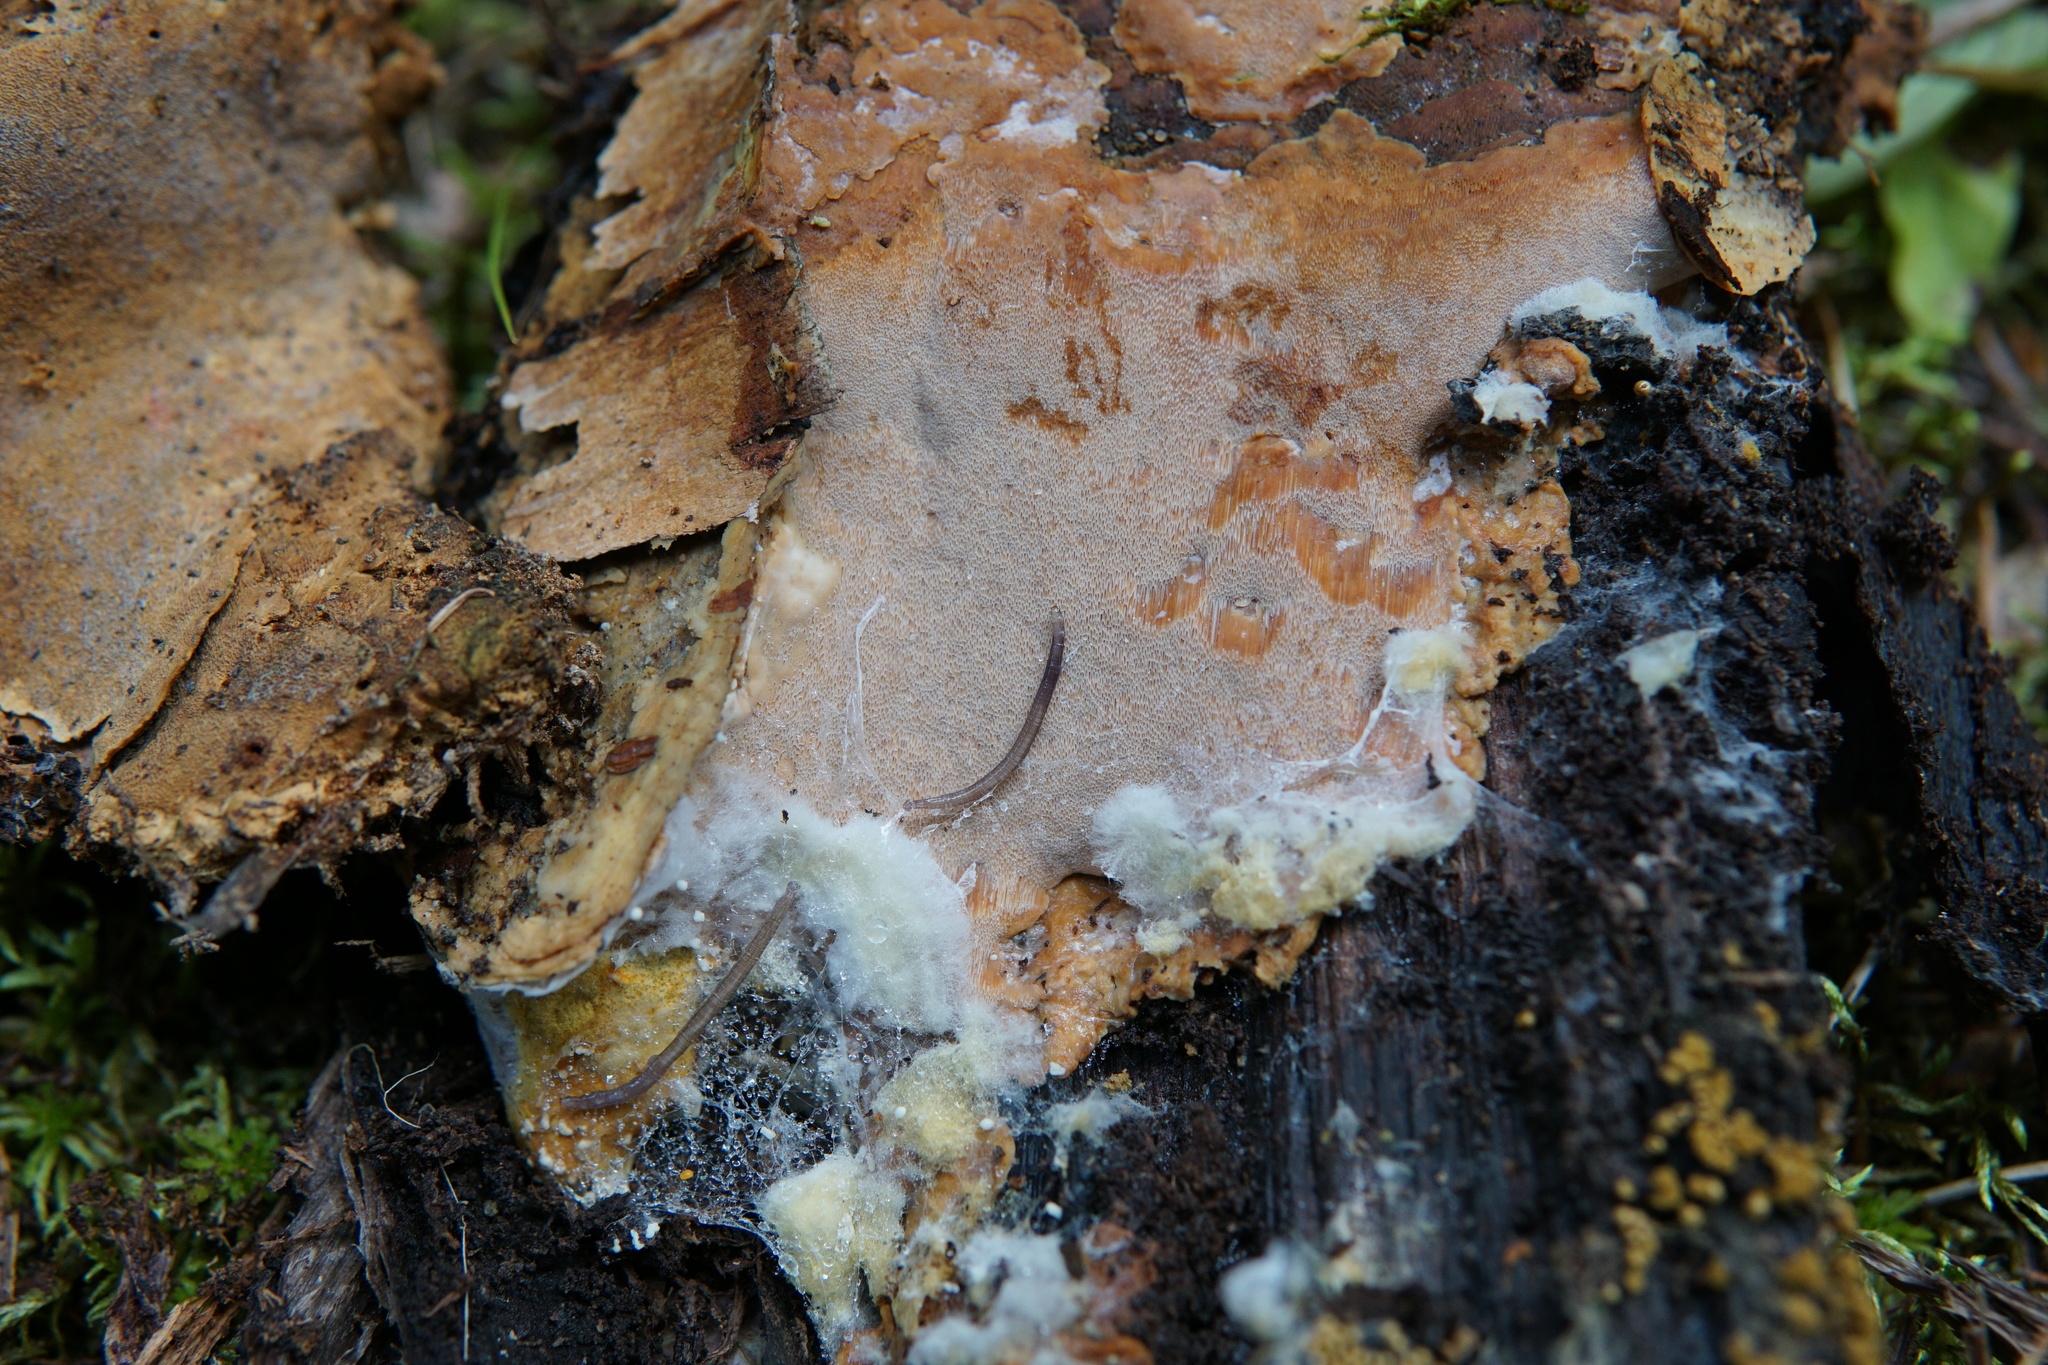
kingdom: Fungi
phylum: Basidiomycota
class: Agaricomycetes
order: Polyporales
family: Meripilaceae
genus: Rigidoporus
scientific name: Rigidoporus crocatus
